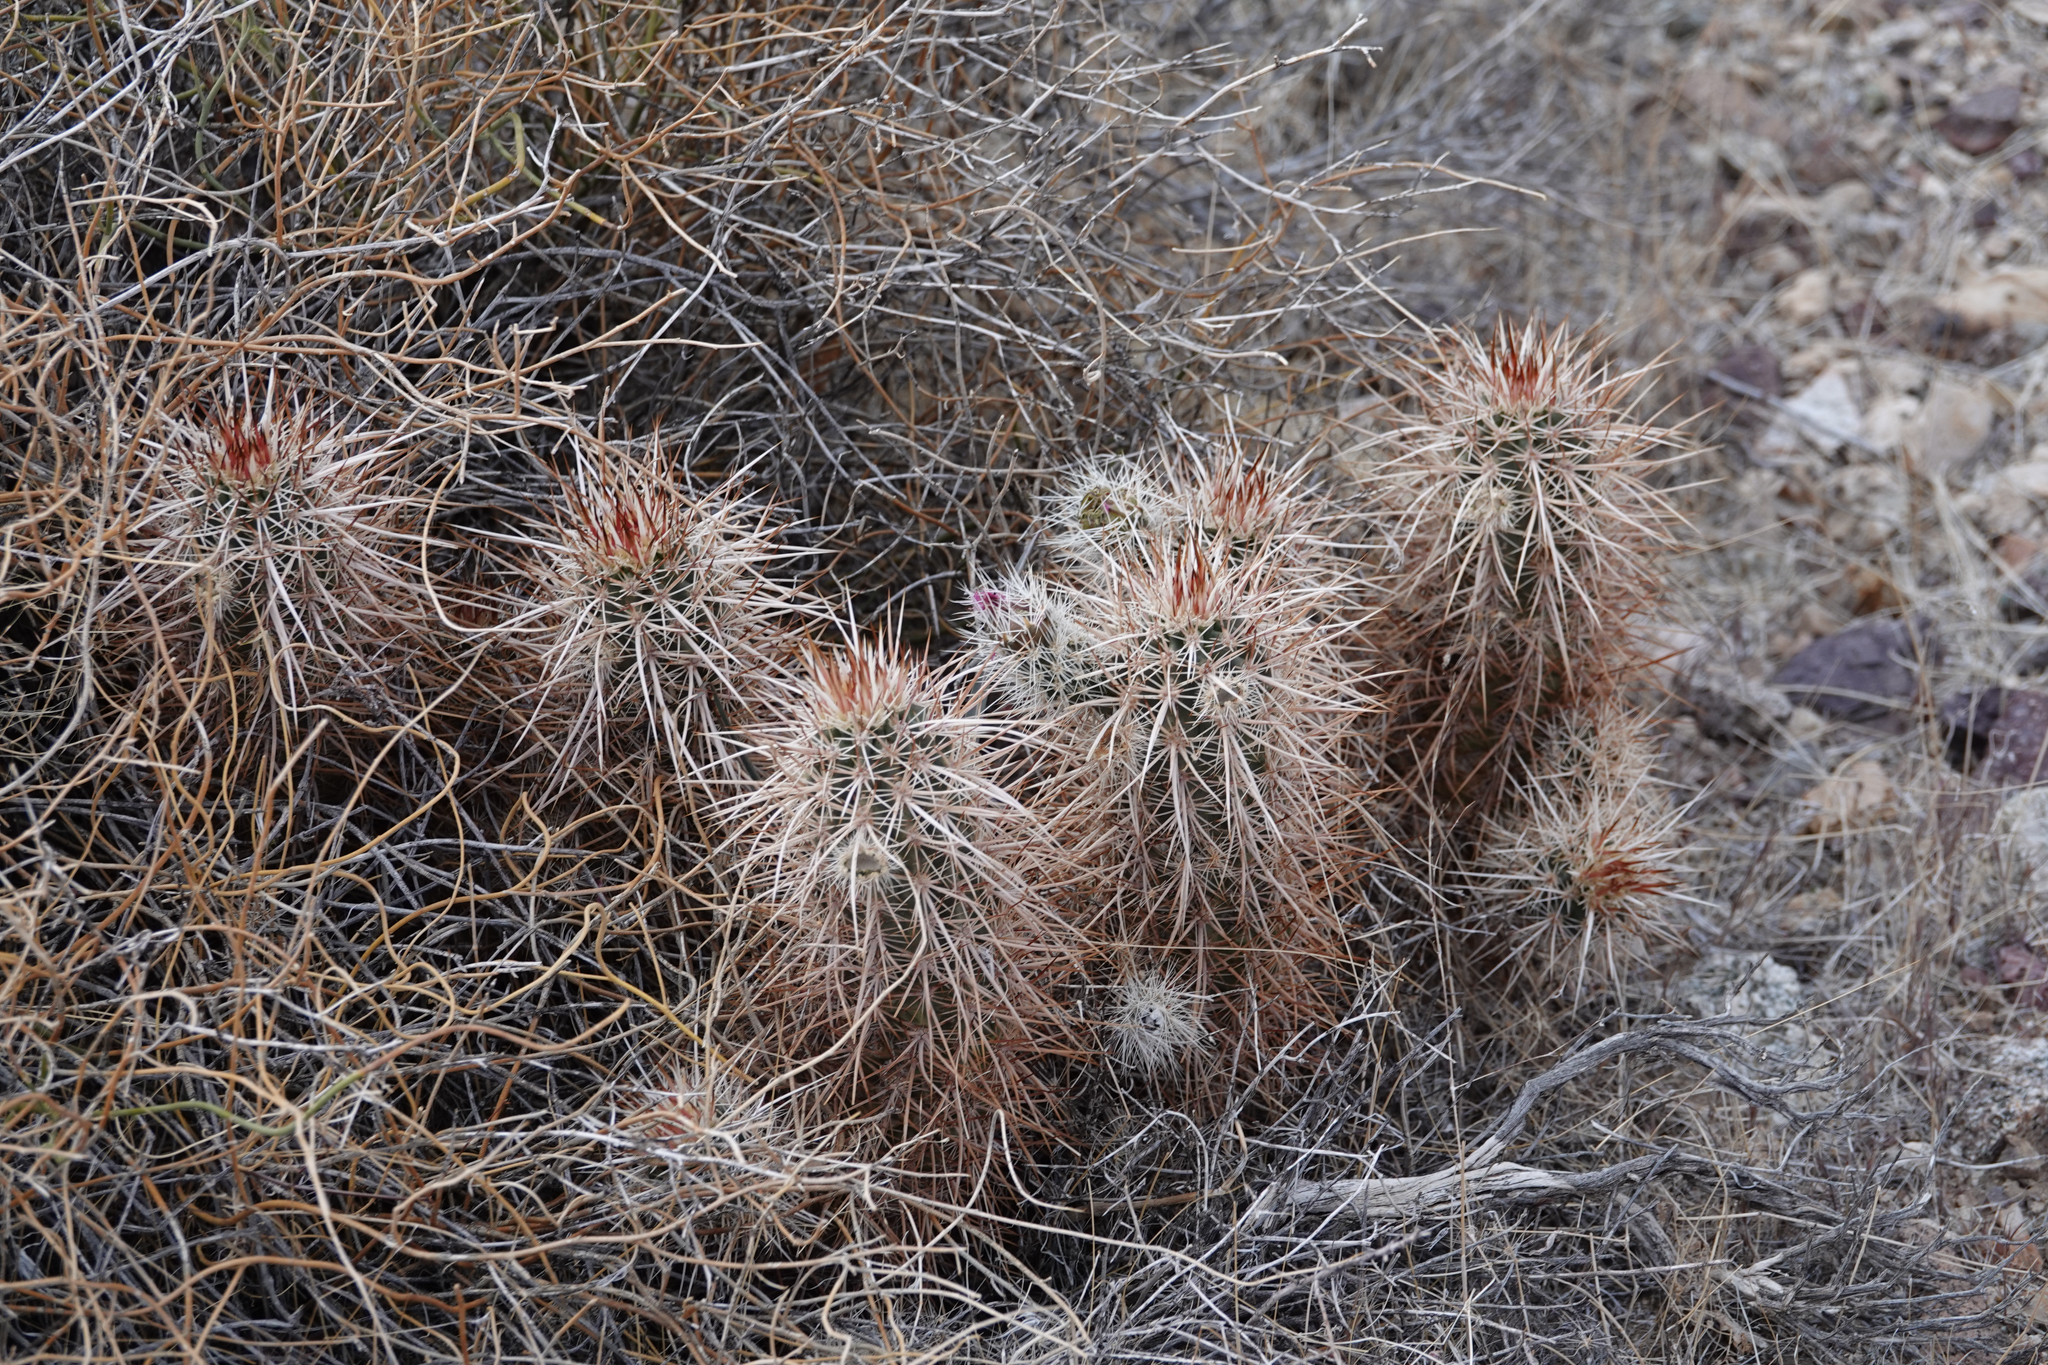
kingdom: Plantae
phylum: Tracheophyta
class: Magnoliopsida
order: Caryophyllales
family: Cactaceae
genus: Echinocereus
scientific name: Echinocereus engelmannii
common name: Engelmann's hedgehog cactus
